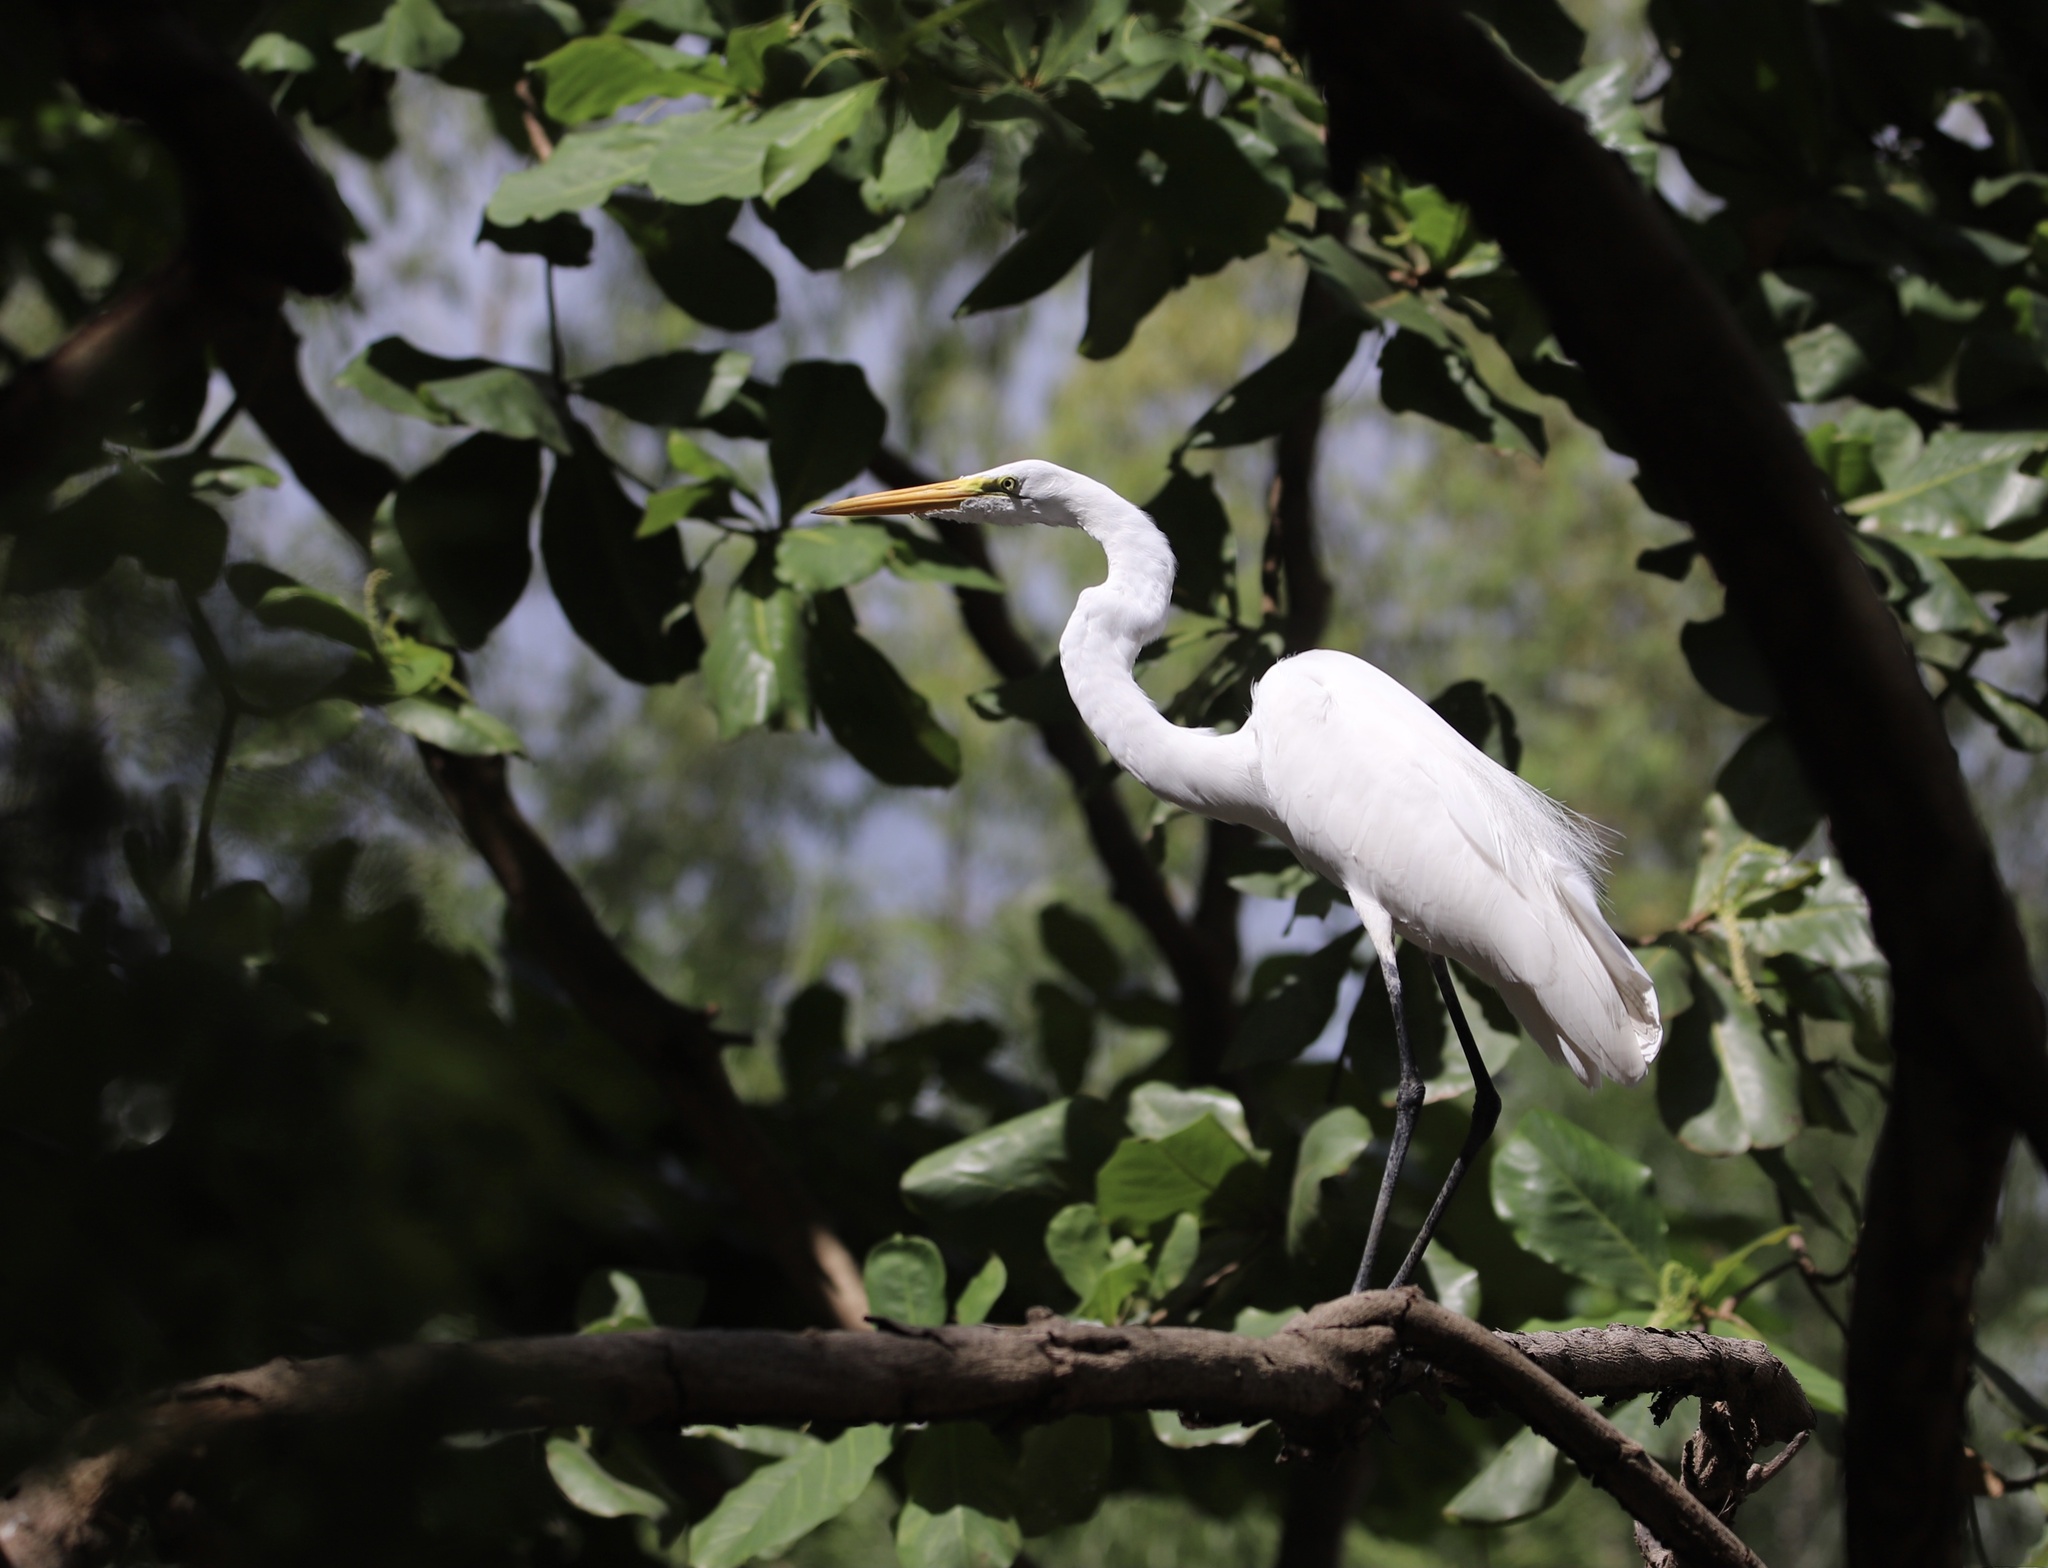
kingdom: Animalia
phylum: Chordata
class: Aves
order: Pelecaniformes
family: Ardeidae
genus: Ardea
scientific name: Ardea alba
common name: Great egret
